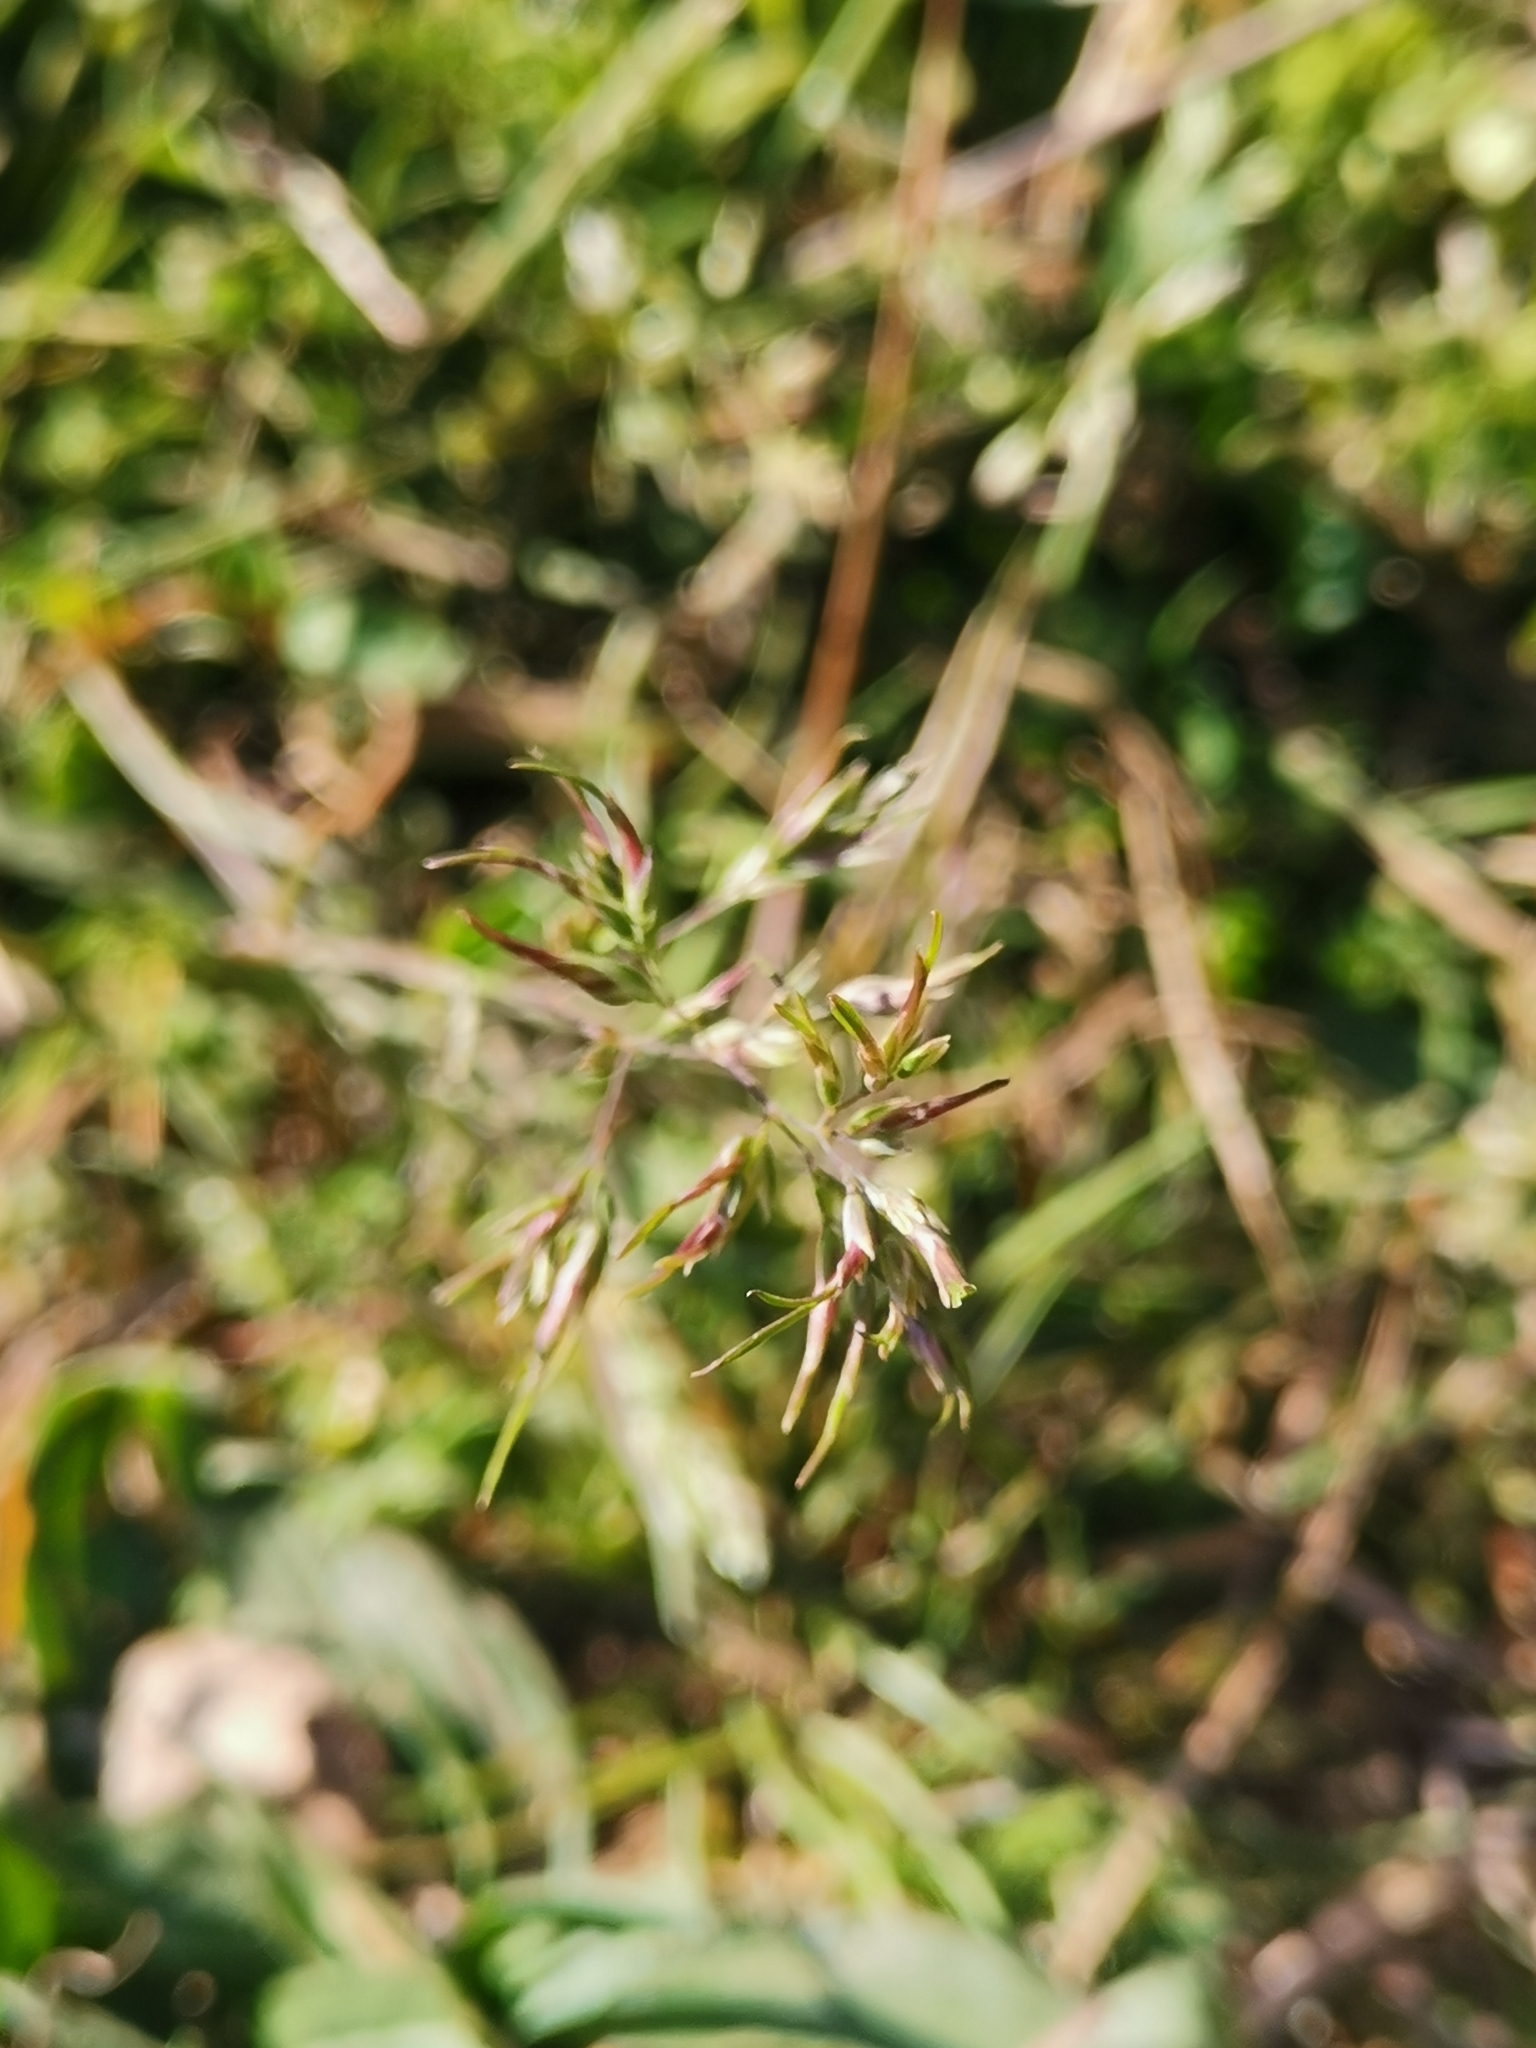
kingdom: Plantae
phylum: Tracheophyta
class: Liliopsida
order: Poales
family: Poaceae
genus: Poa
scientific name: Poa bulbosa
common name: Bulbous bluegrass
